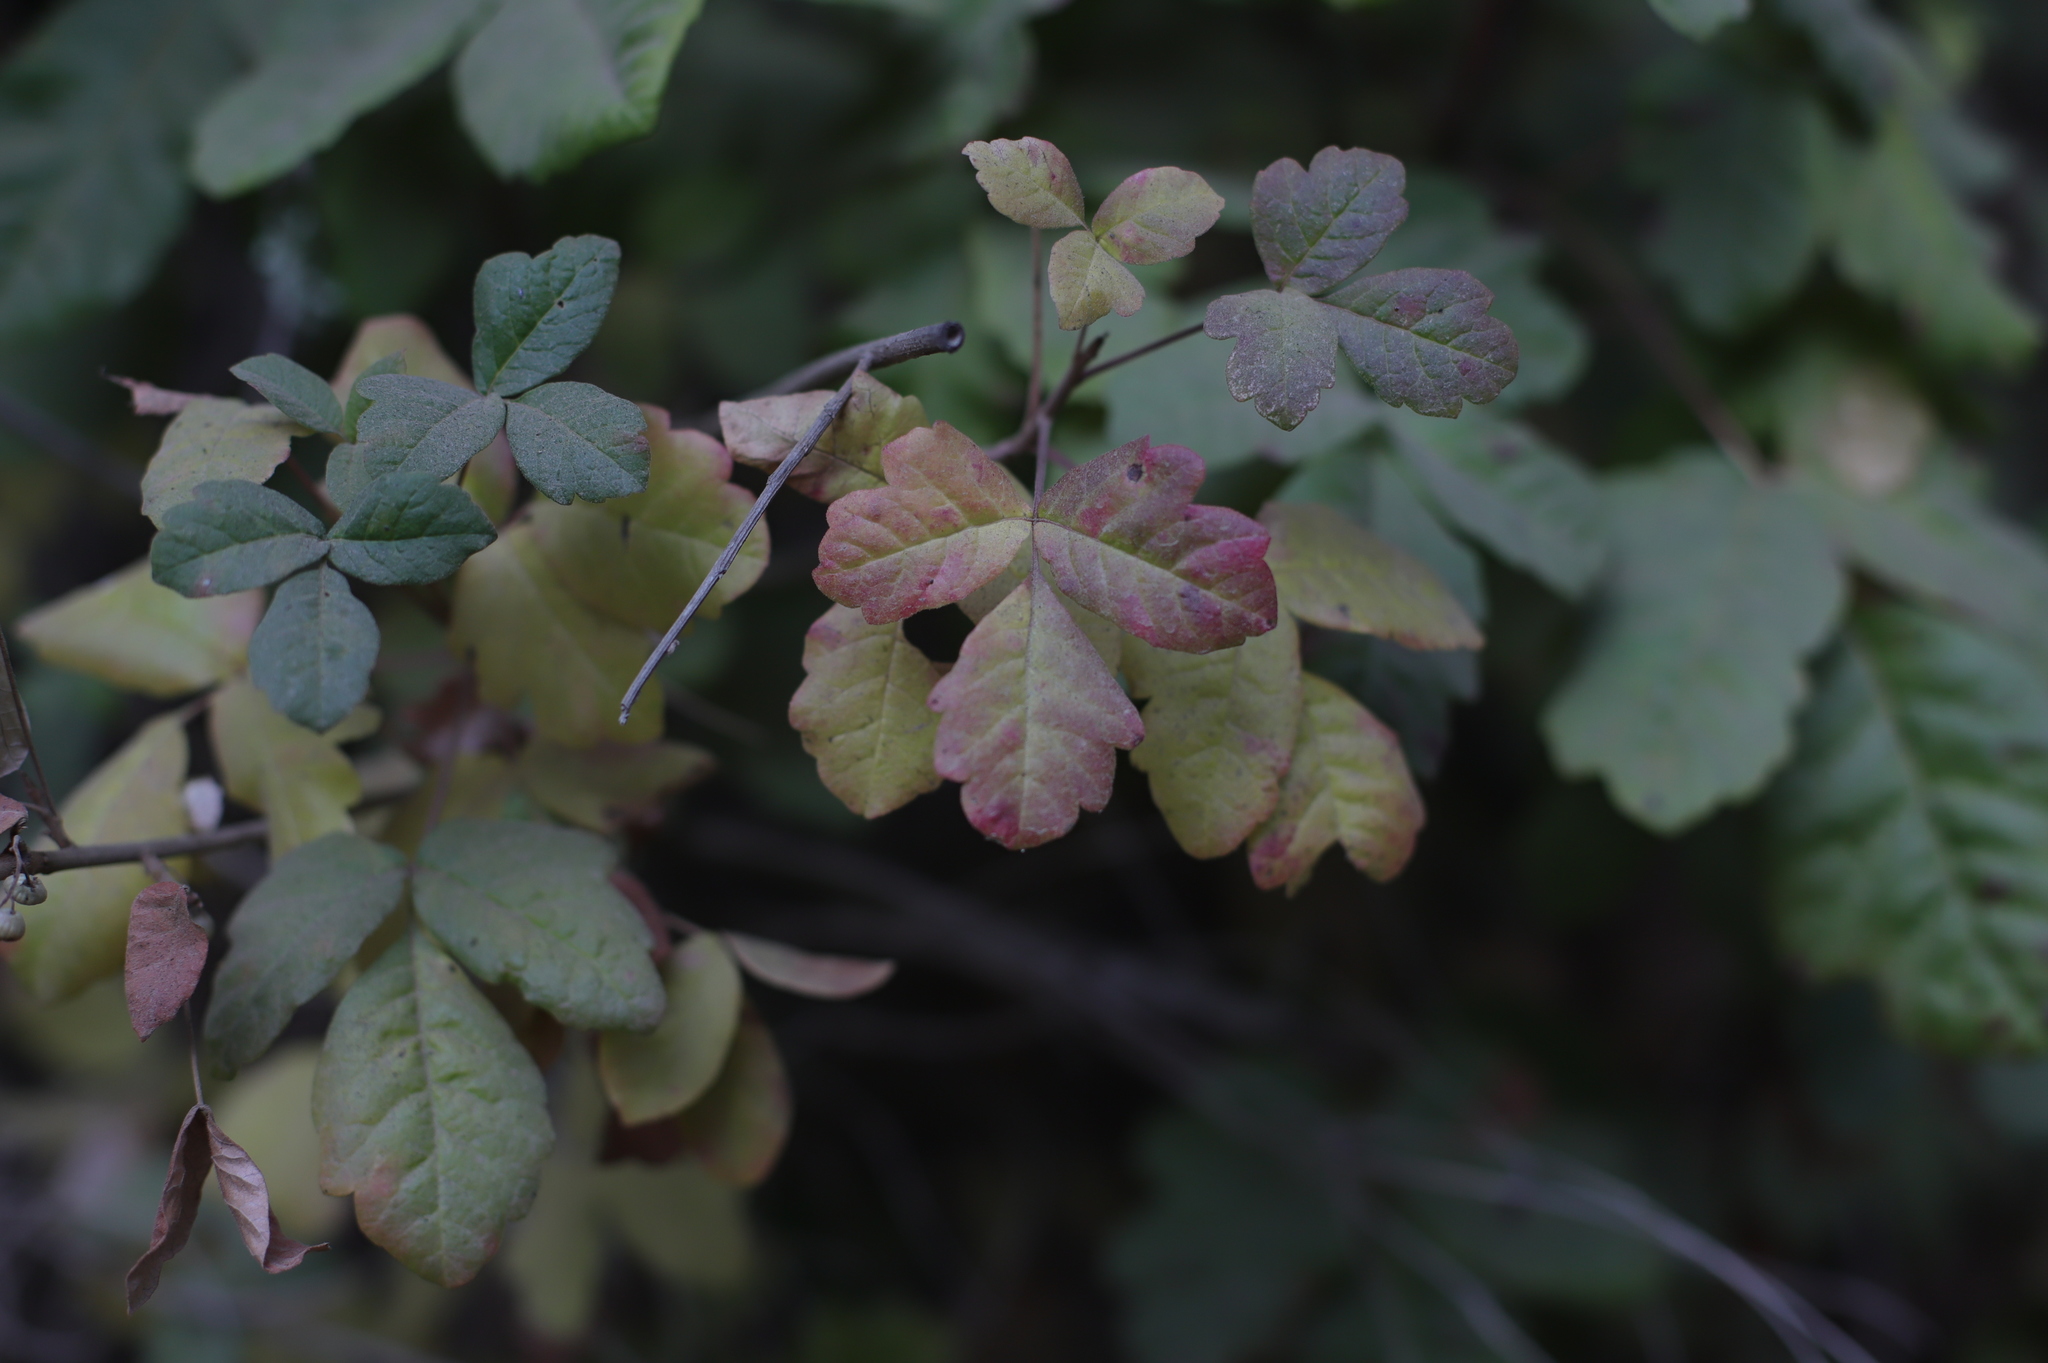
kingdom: Plantae
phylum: Tracheophyta
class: Magnoliopsida
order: Sapindales
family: Anacardiaceae
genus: Toxicodendron
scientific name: Toxicodendron diversilobum
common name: Pacific poison-oak
